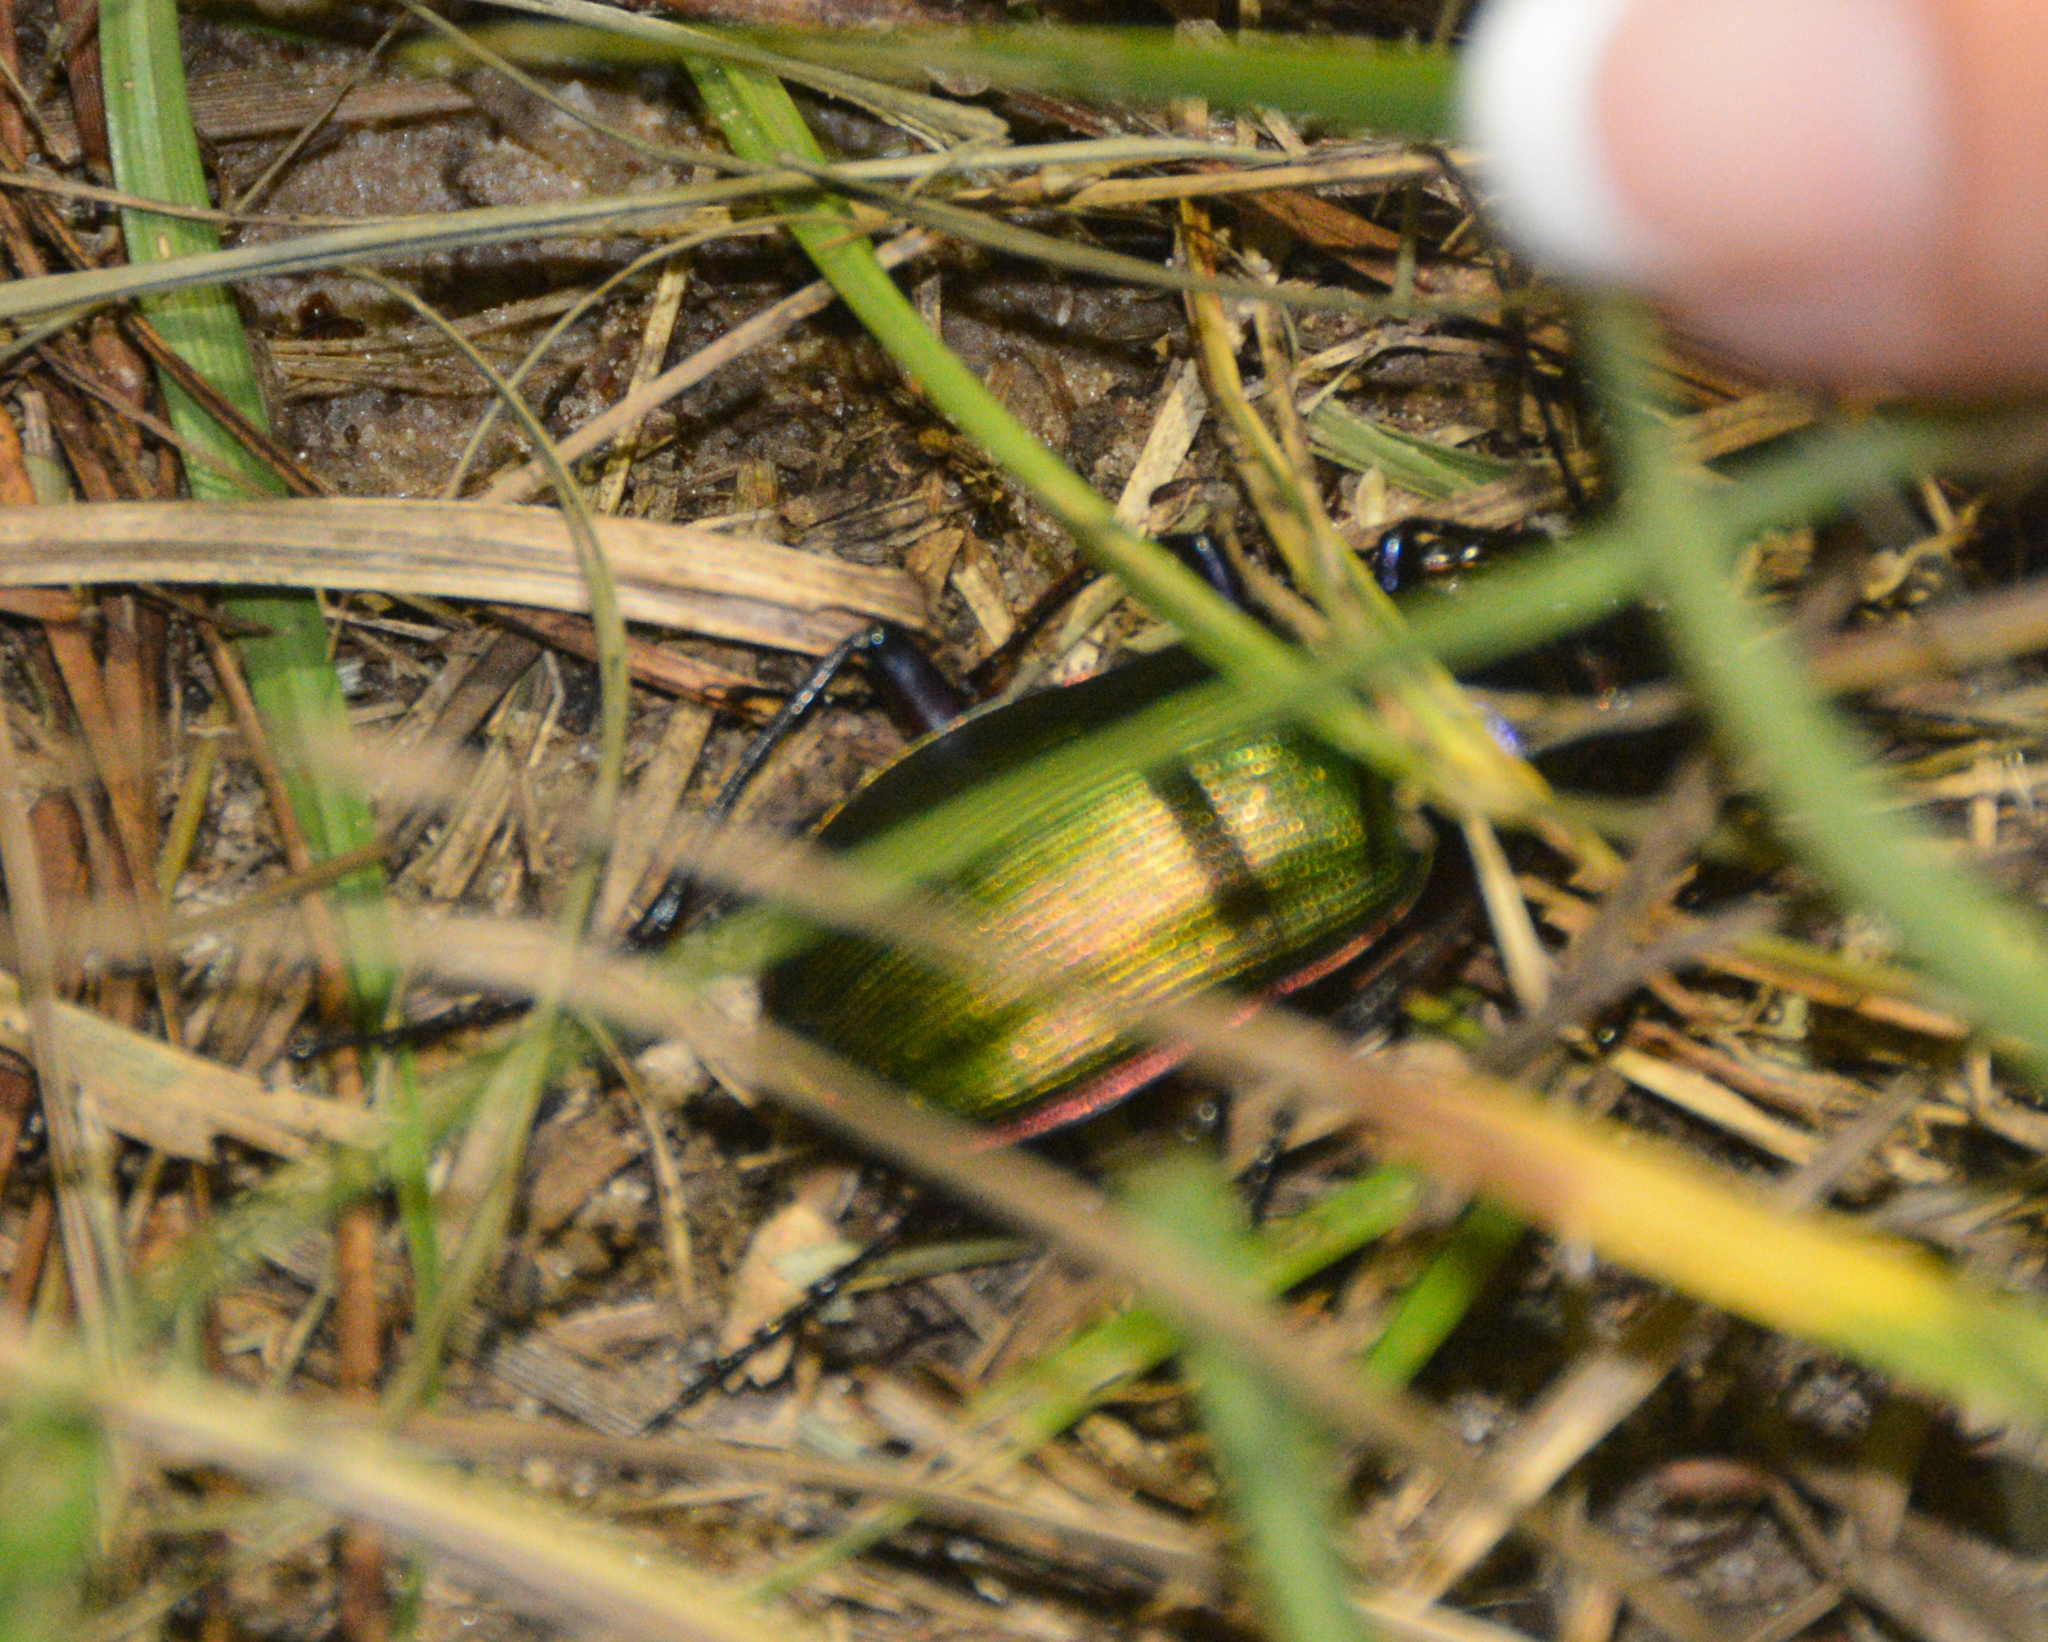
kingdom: Animalia
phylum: Arthropoda
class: Insecta
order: Coleoptera
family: Carabidae
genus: Calosoma
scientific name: Calosoma scrutator
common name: Fiery searcher beetle
